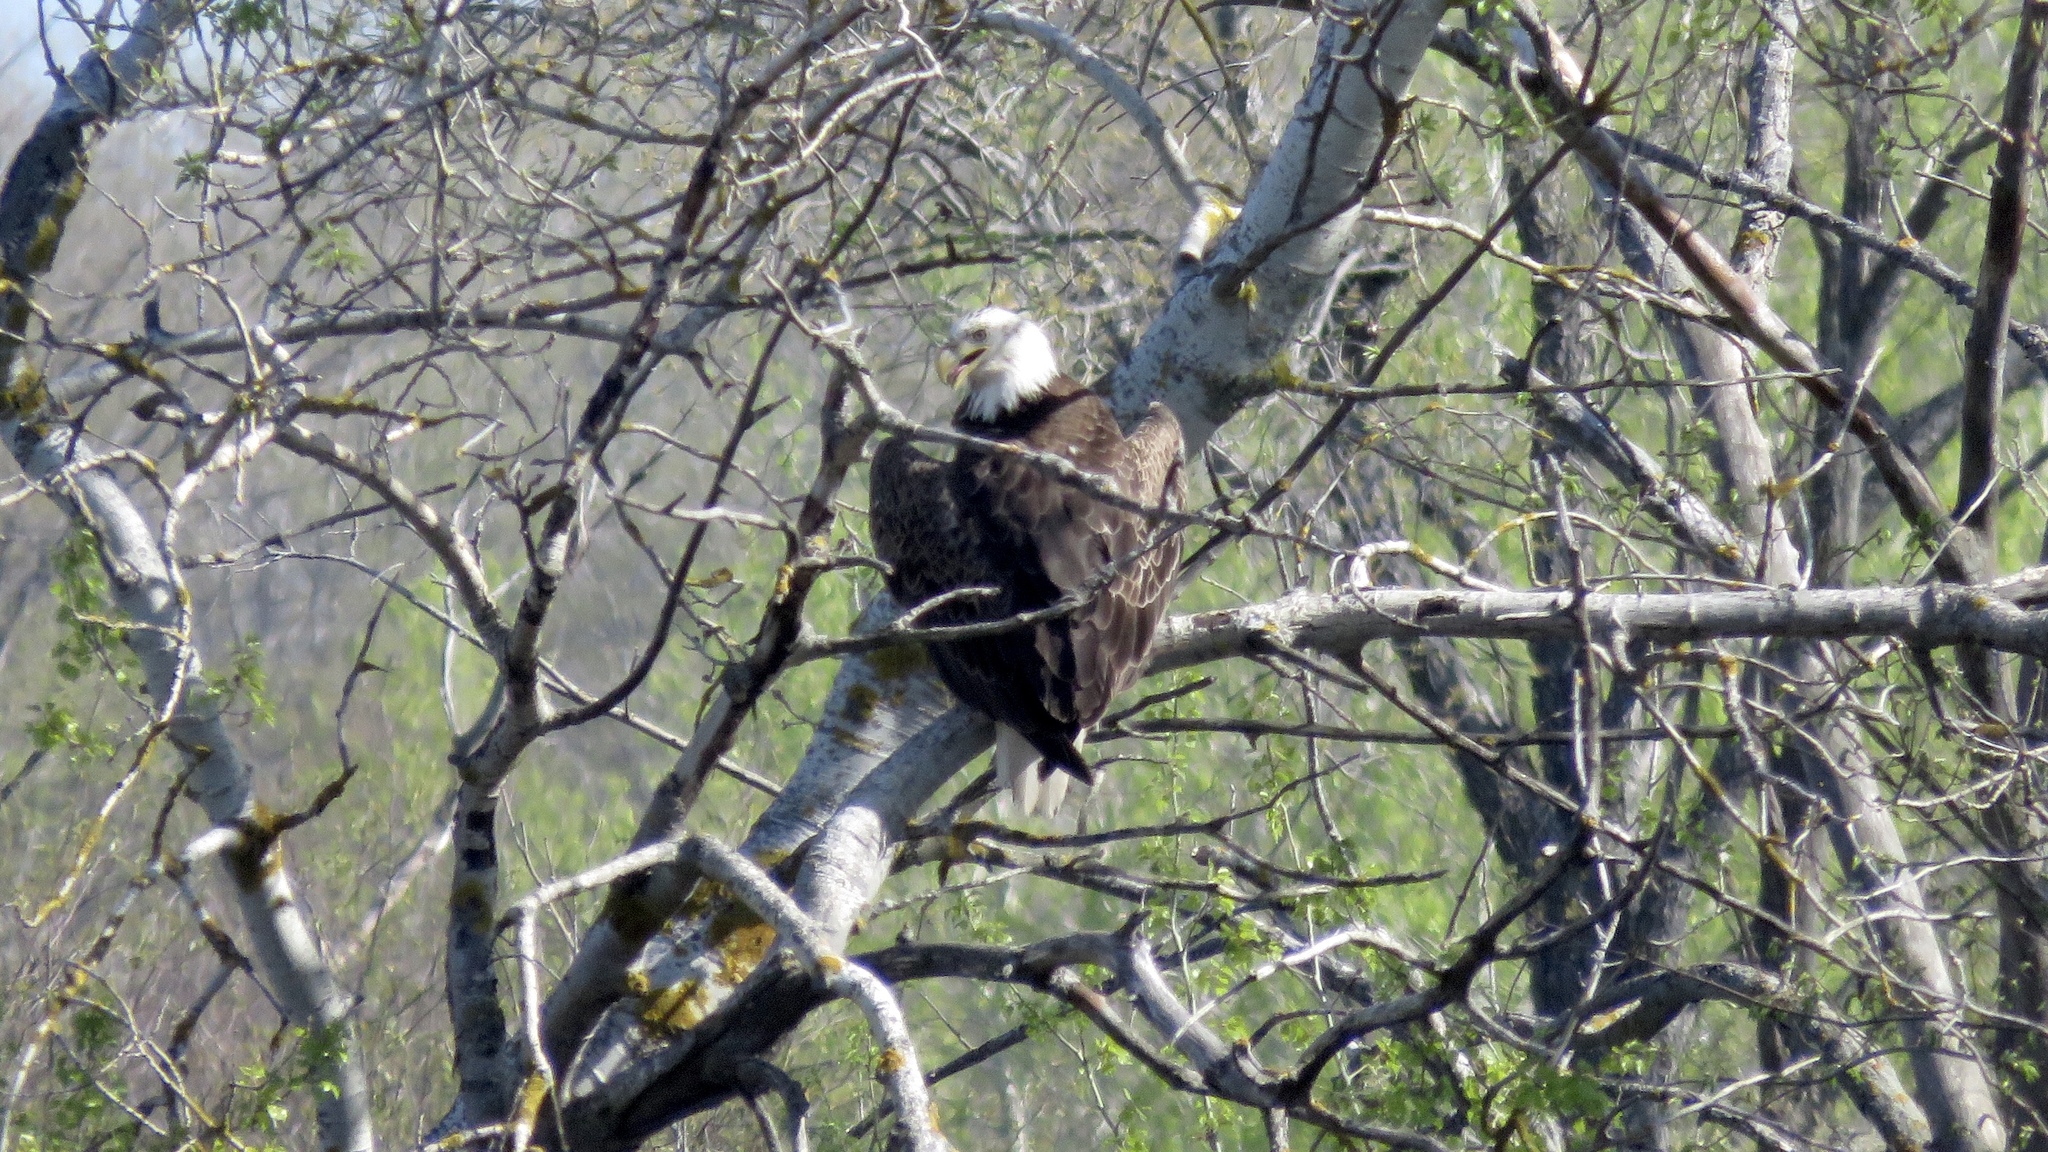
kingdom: Animalia
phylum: Chordata
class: Aves
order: Accipitriformes
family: Accipitridae
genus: Haliaeetus
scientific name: Haliaeetus leucocephalus
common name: Bald eagle
